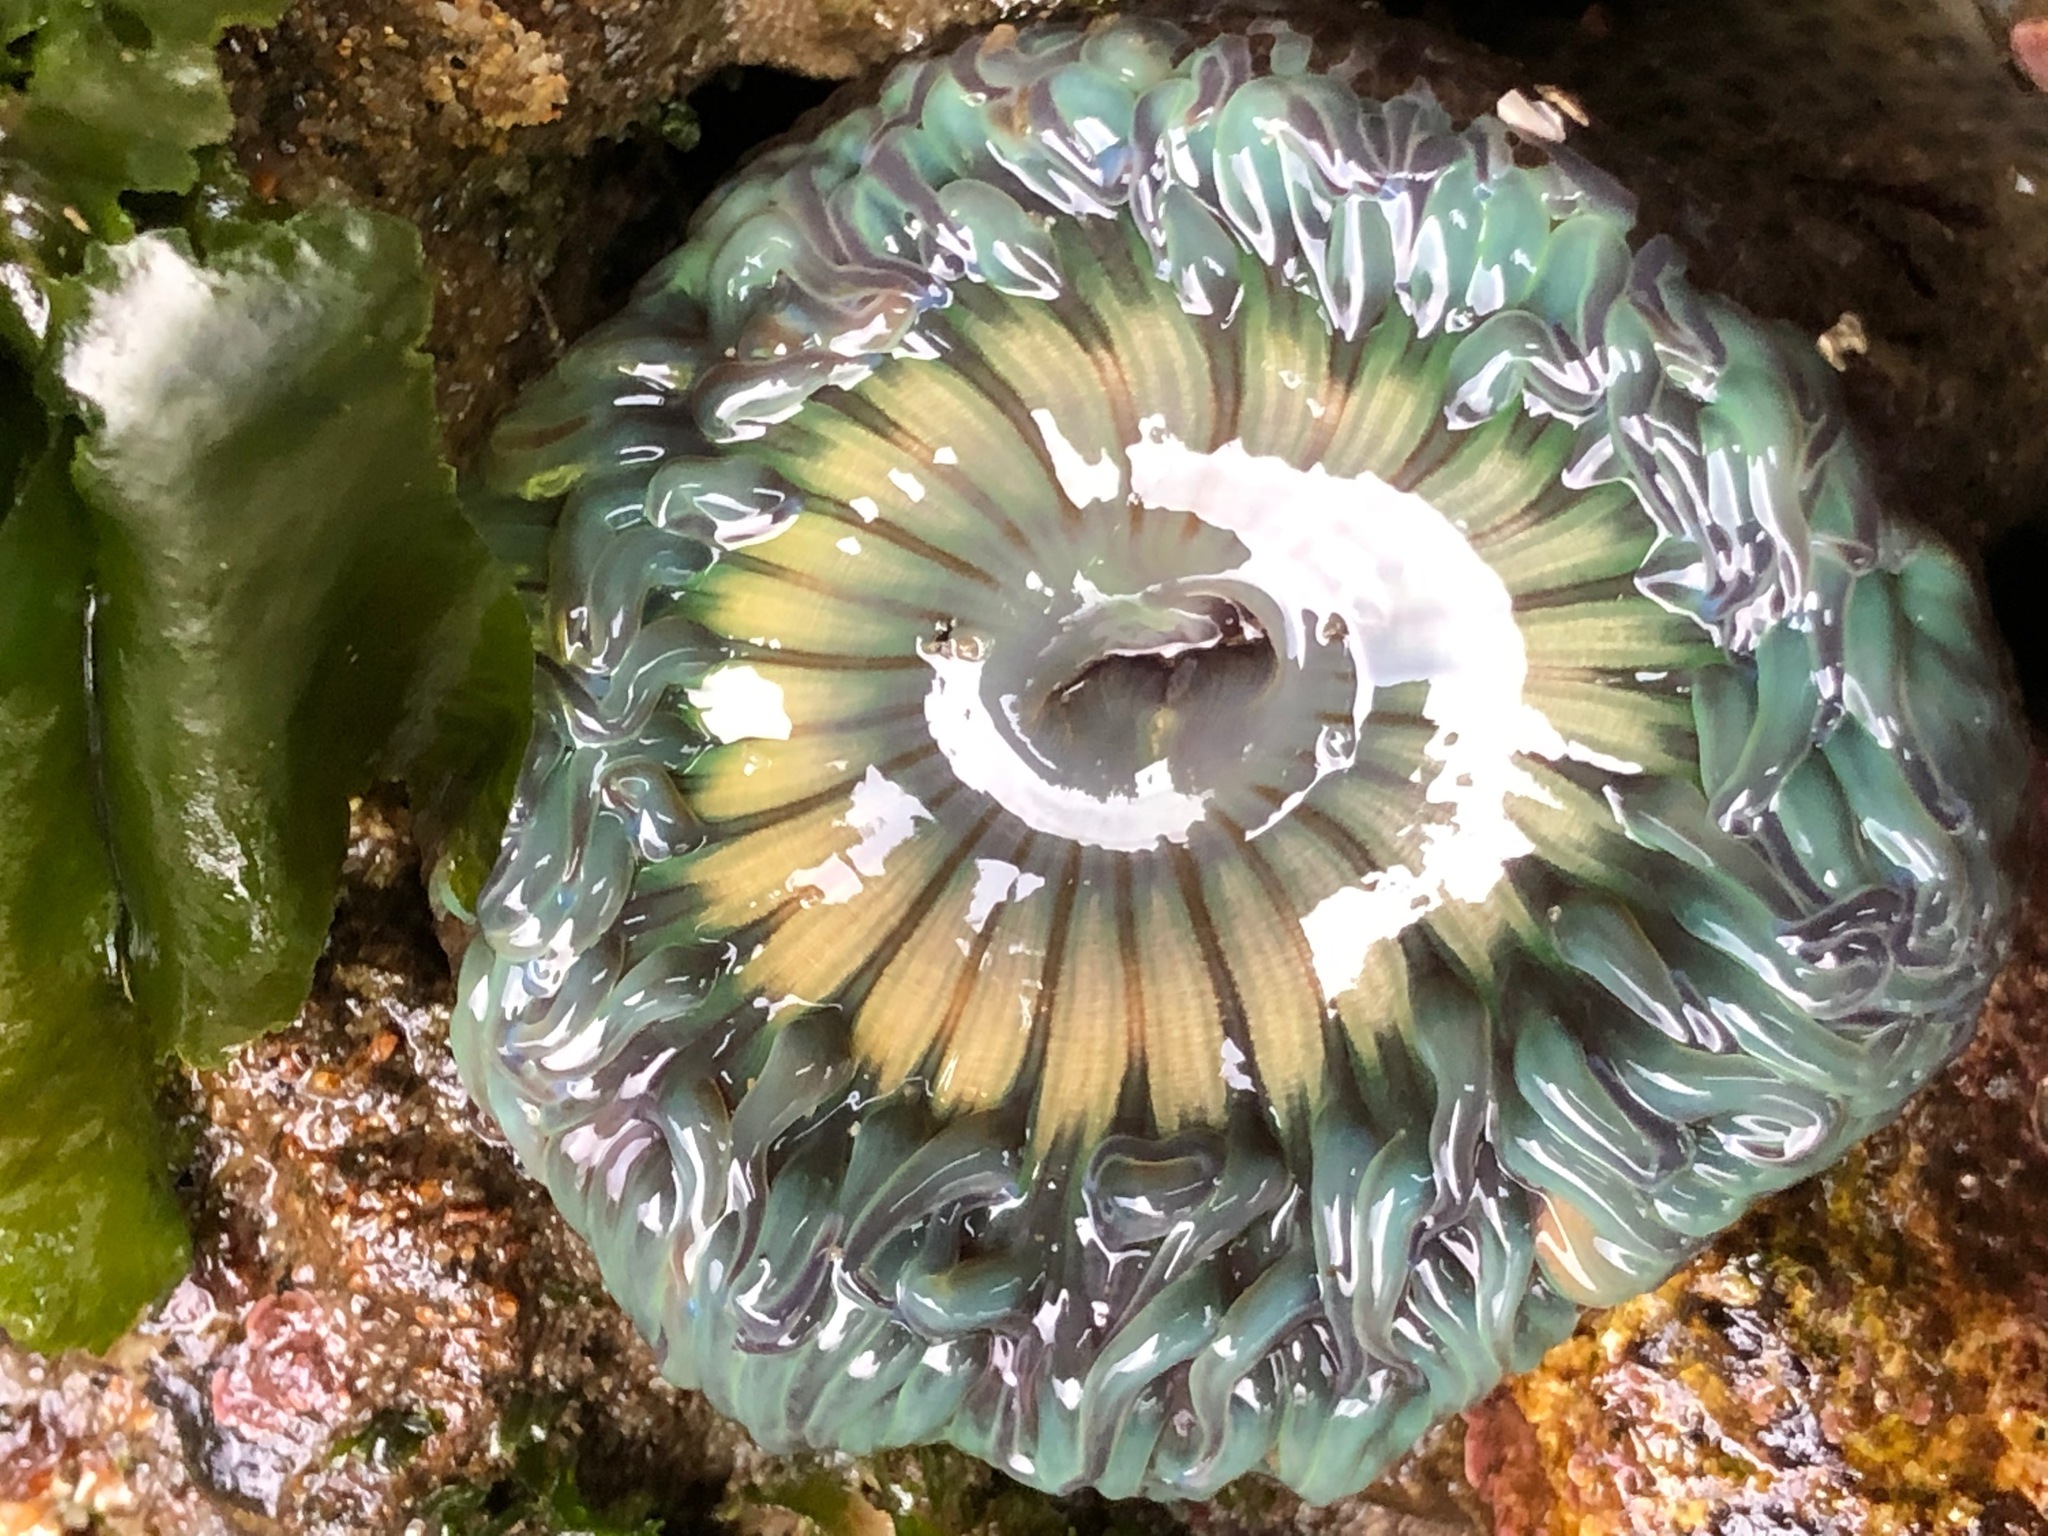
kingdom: Animalia
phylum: Cnidaria
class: Anthozoa
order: Actiniaria
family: Actiniidae
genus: Anthopleura
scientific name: Anthopleura sola
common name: Sun anemone
